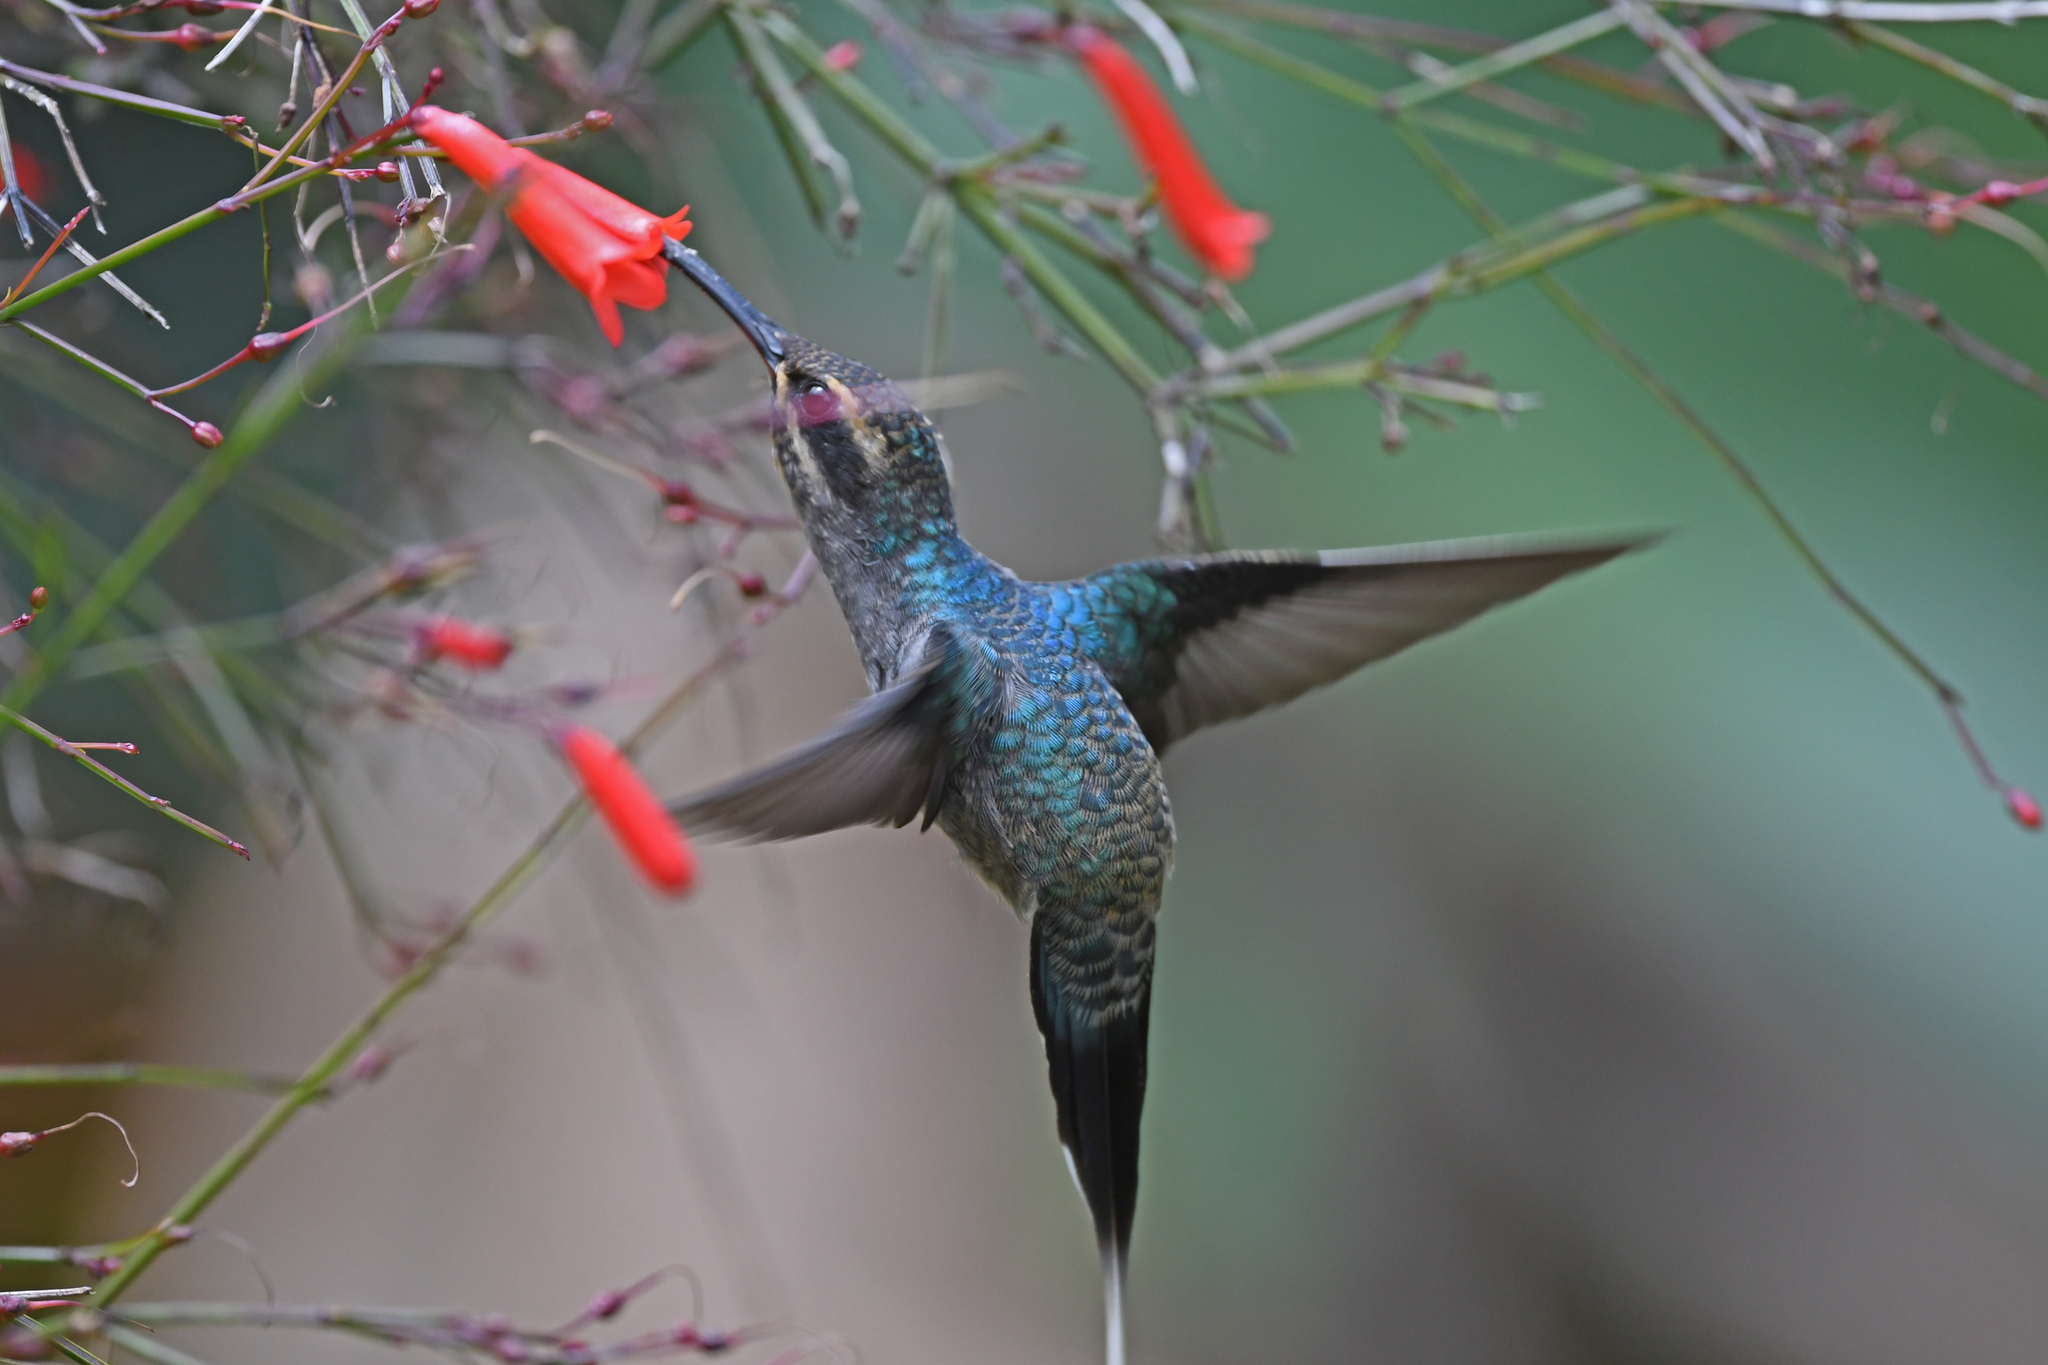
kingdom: Animalia
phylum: Chordata
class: Aves
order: Apodiformes
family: Trochilidae
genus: Phaethornis
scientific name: Phaethornis guy
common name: Green hermit
